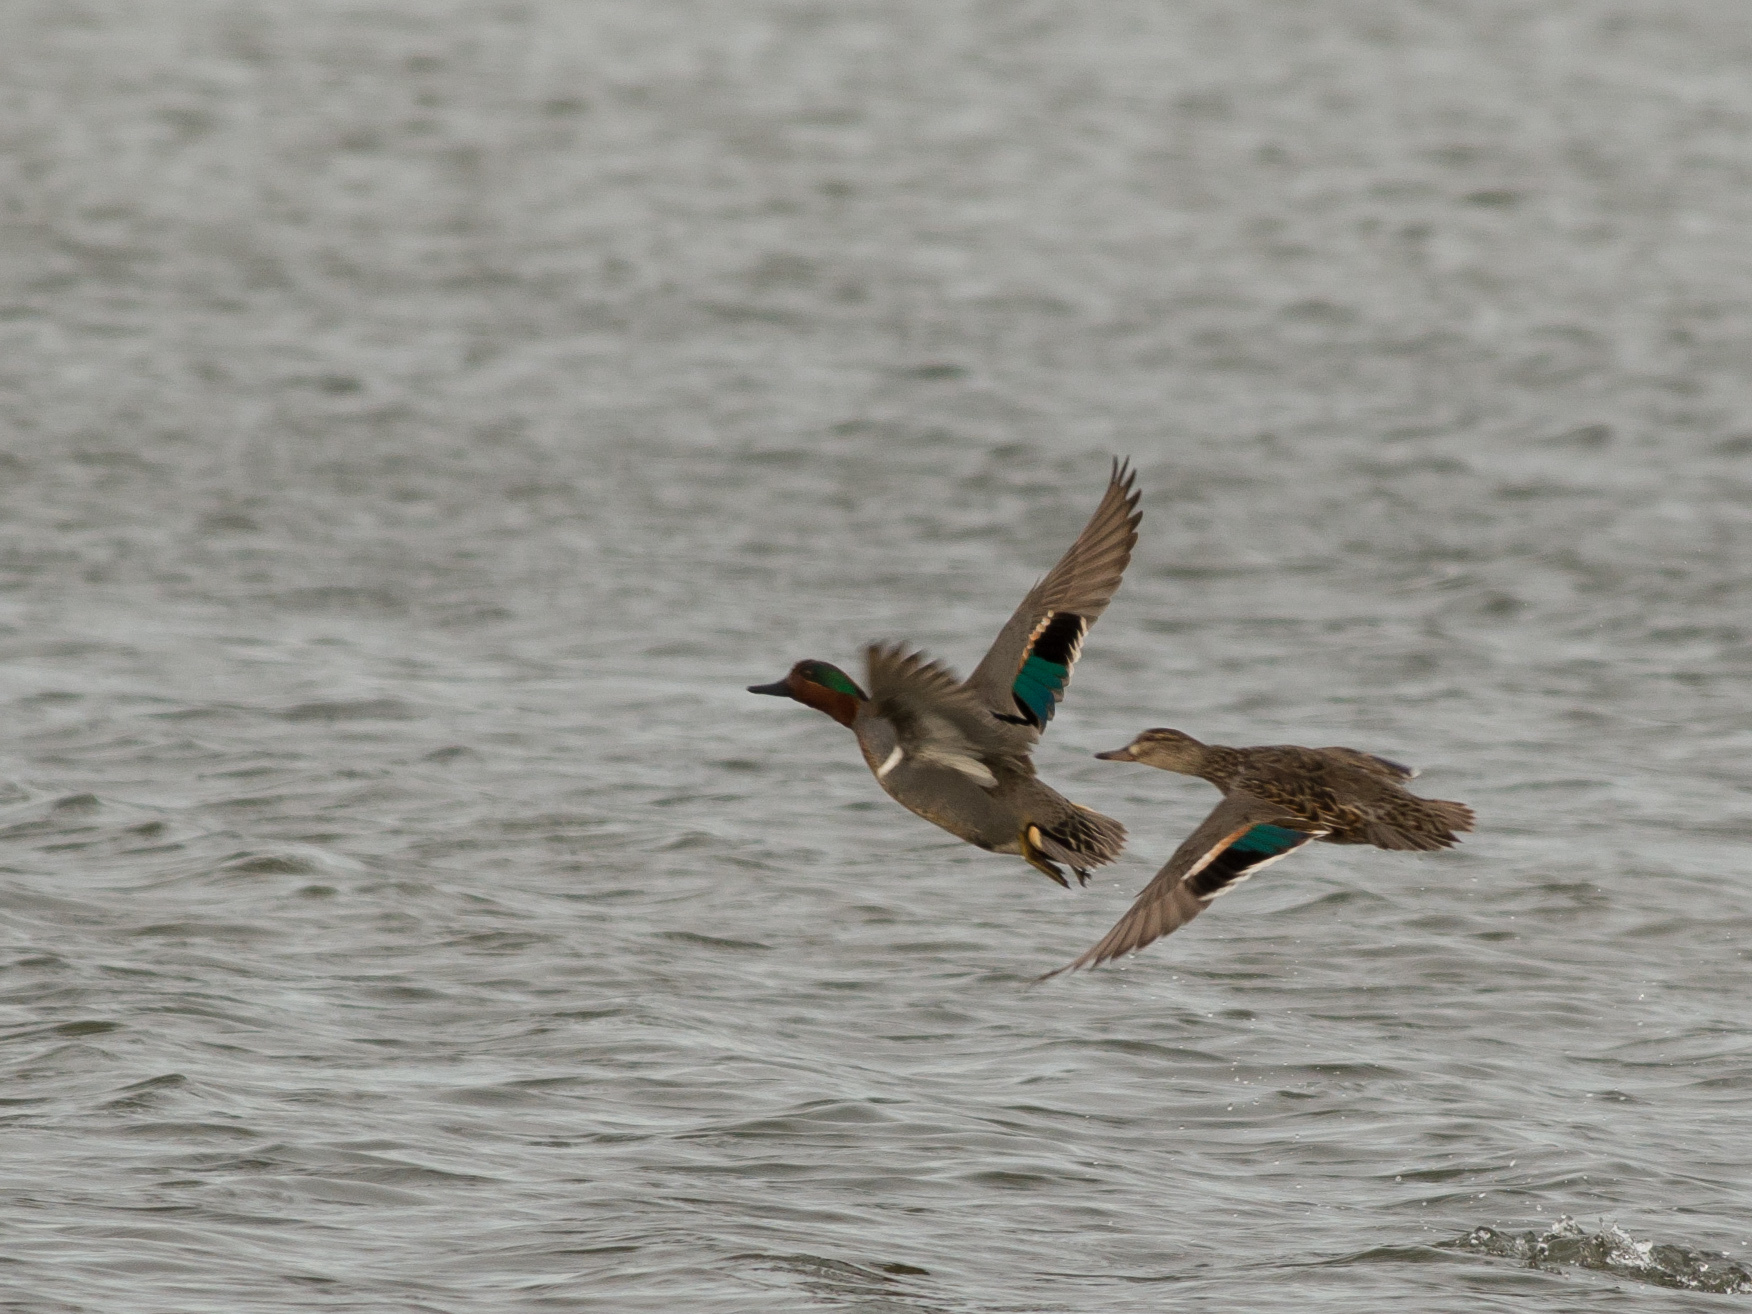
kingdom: Animalia
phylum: Chordata
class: Aves
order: Anseriformes
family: Anatidae
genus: Anas
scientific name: Anas crecca
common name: Eurasian teal
